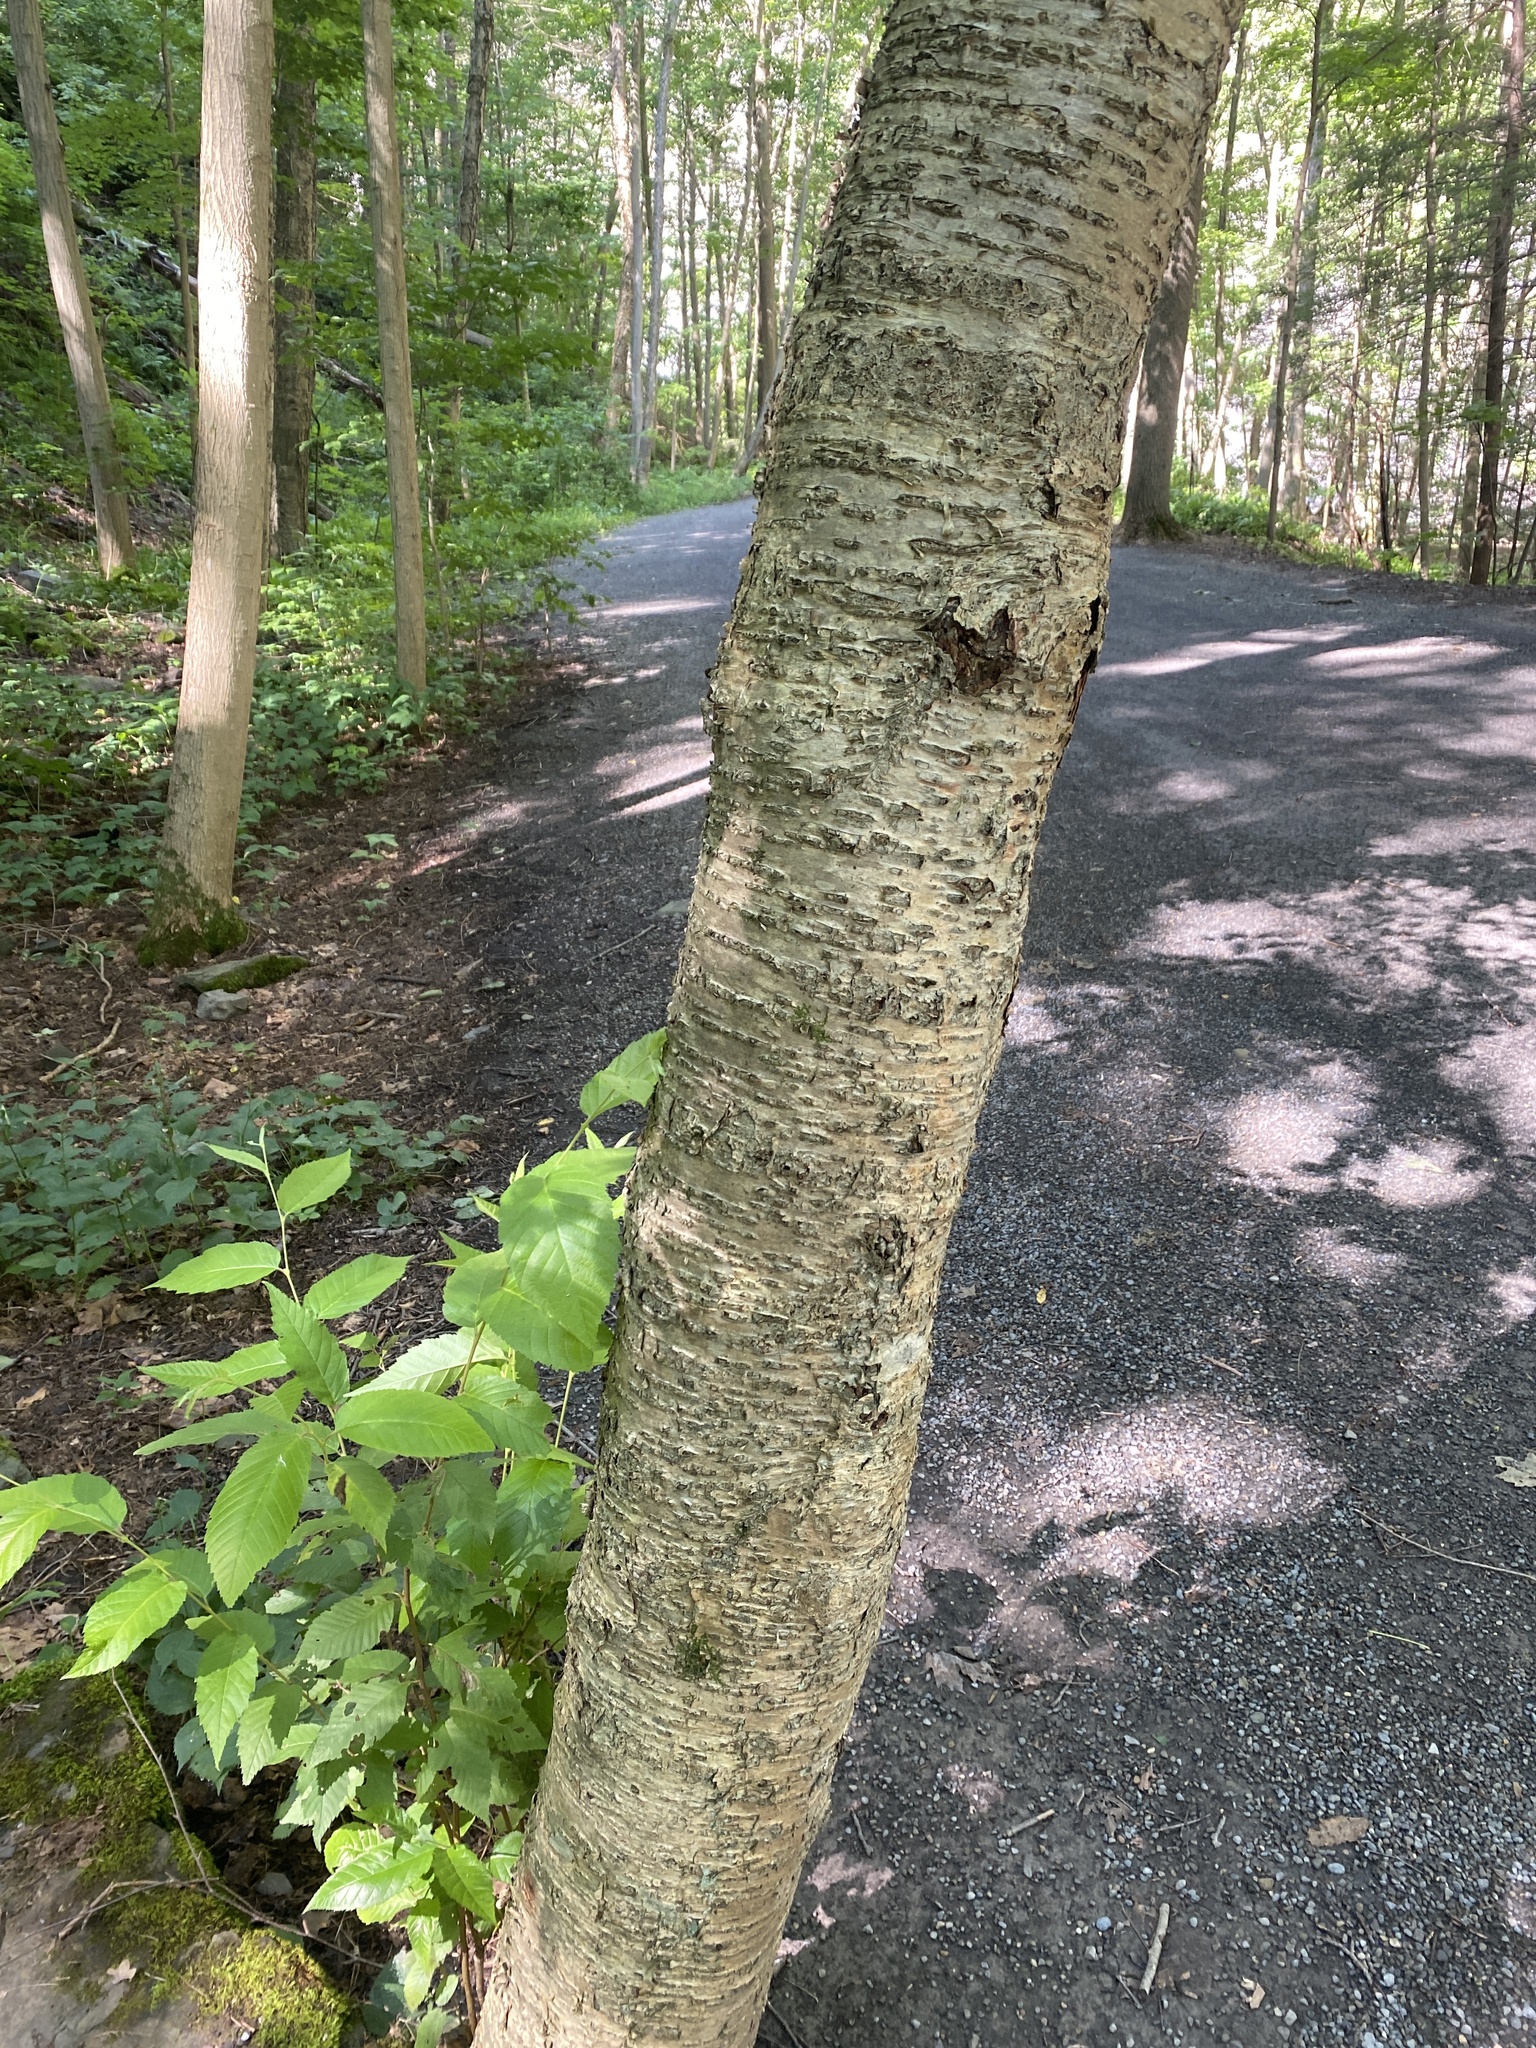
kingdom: Plantae
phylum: Tracheophyta
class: Magnoliopsida
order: Fagales
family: Betulaceae
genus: Betula
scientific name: Betula alleghaniensis
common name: Yellow birch
